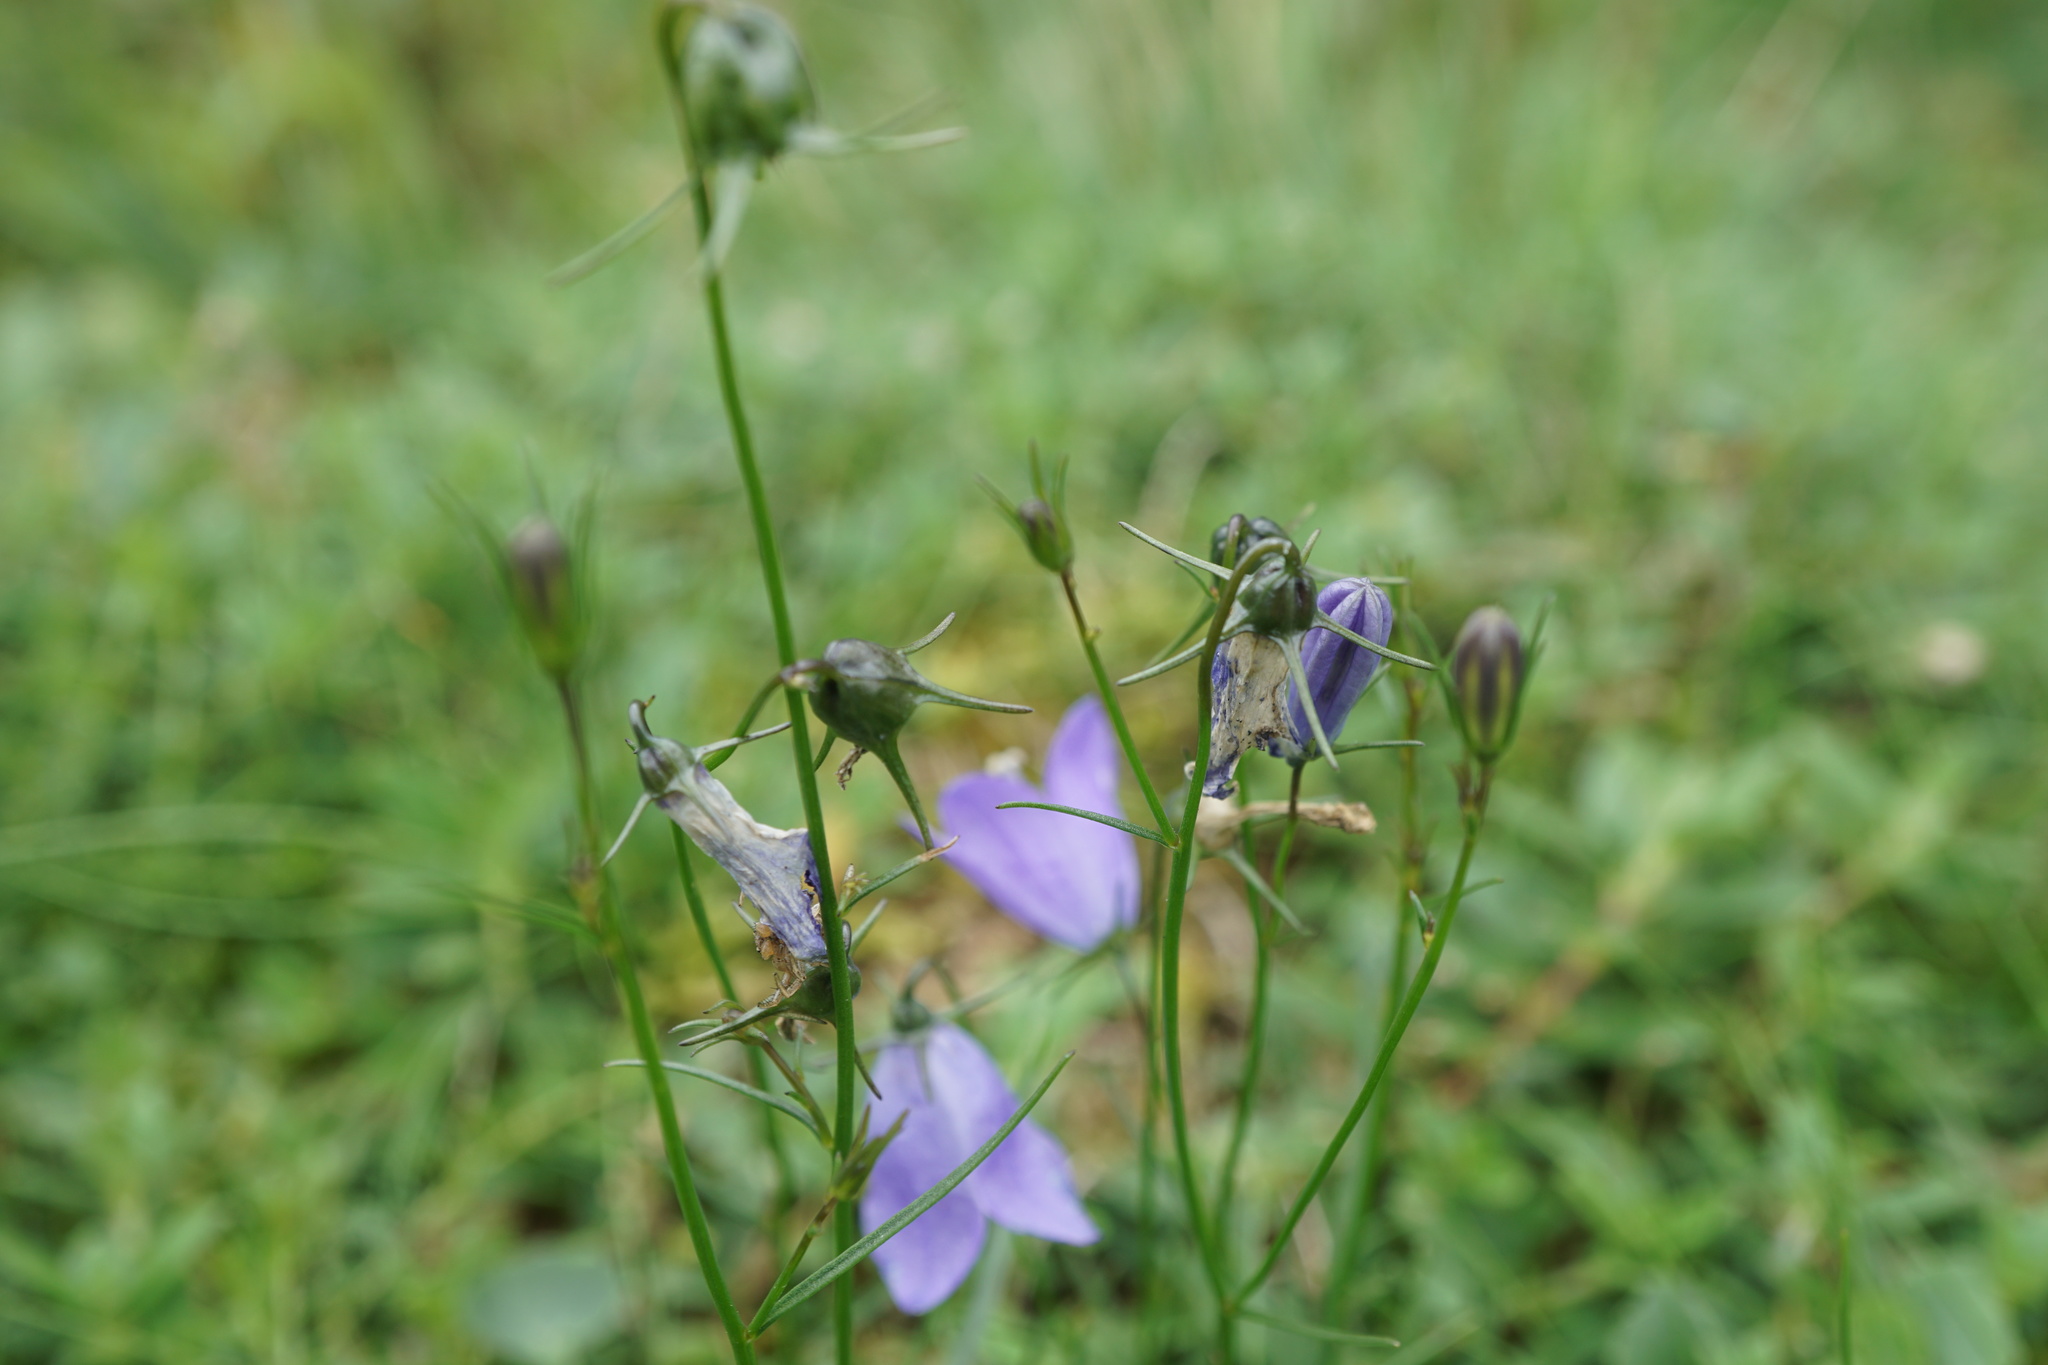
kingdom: Plantae
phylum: Tracheophyta
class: Magnoliopsida
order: Asterales
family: Campanulaceae
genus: Campanula
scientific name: Campanula rotundifolia
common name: Harebell
